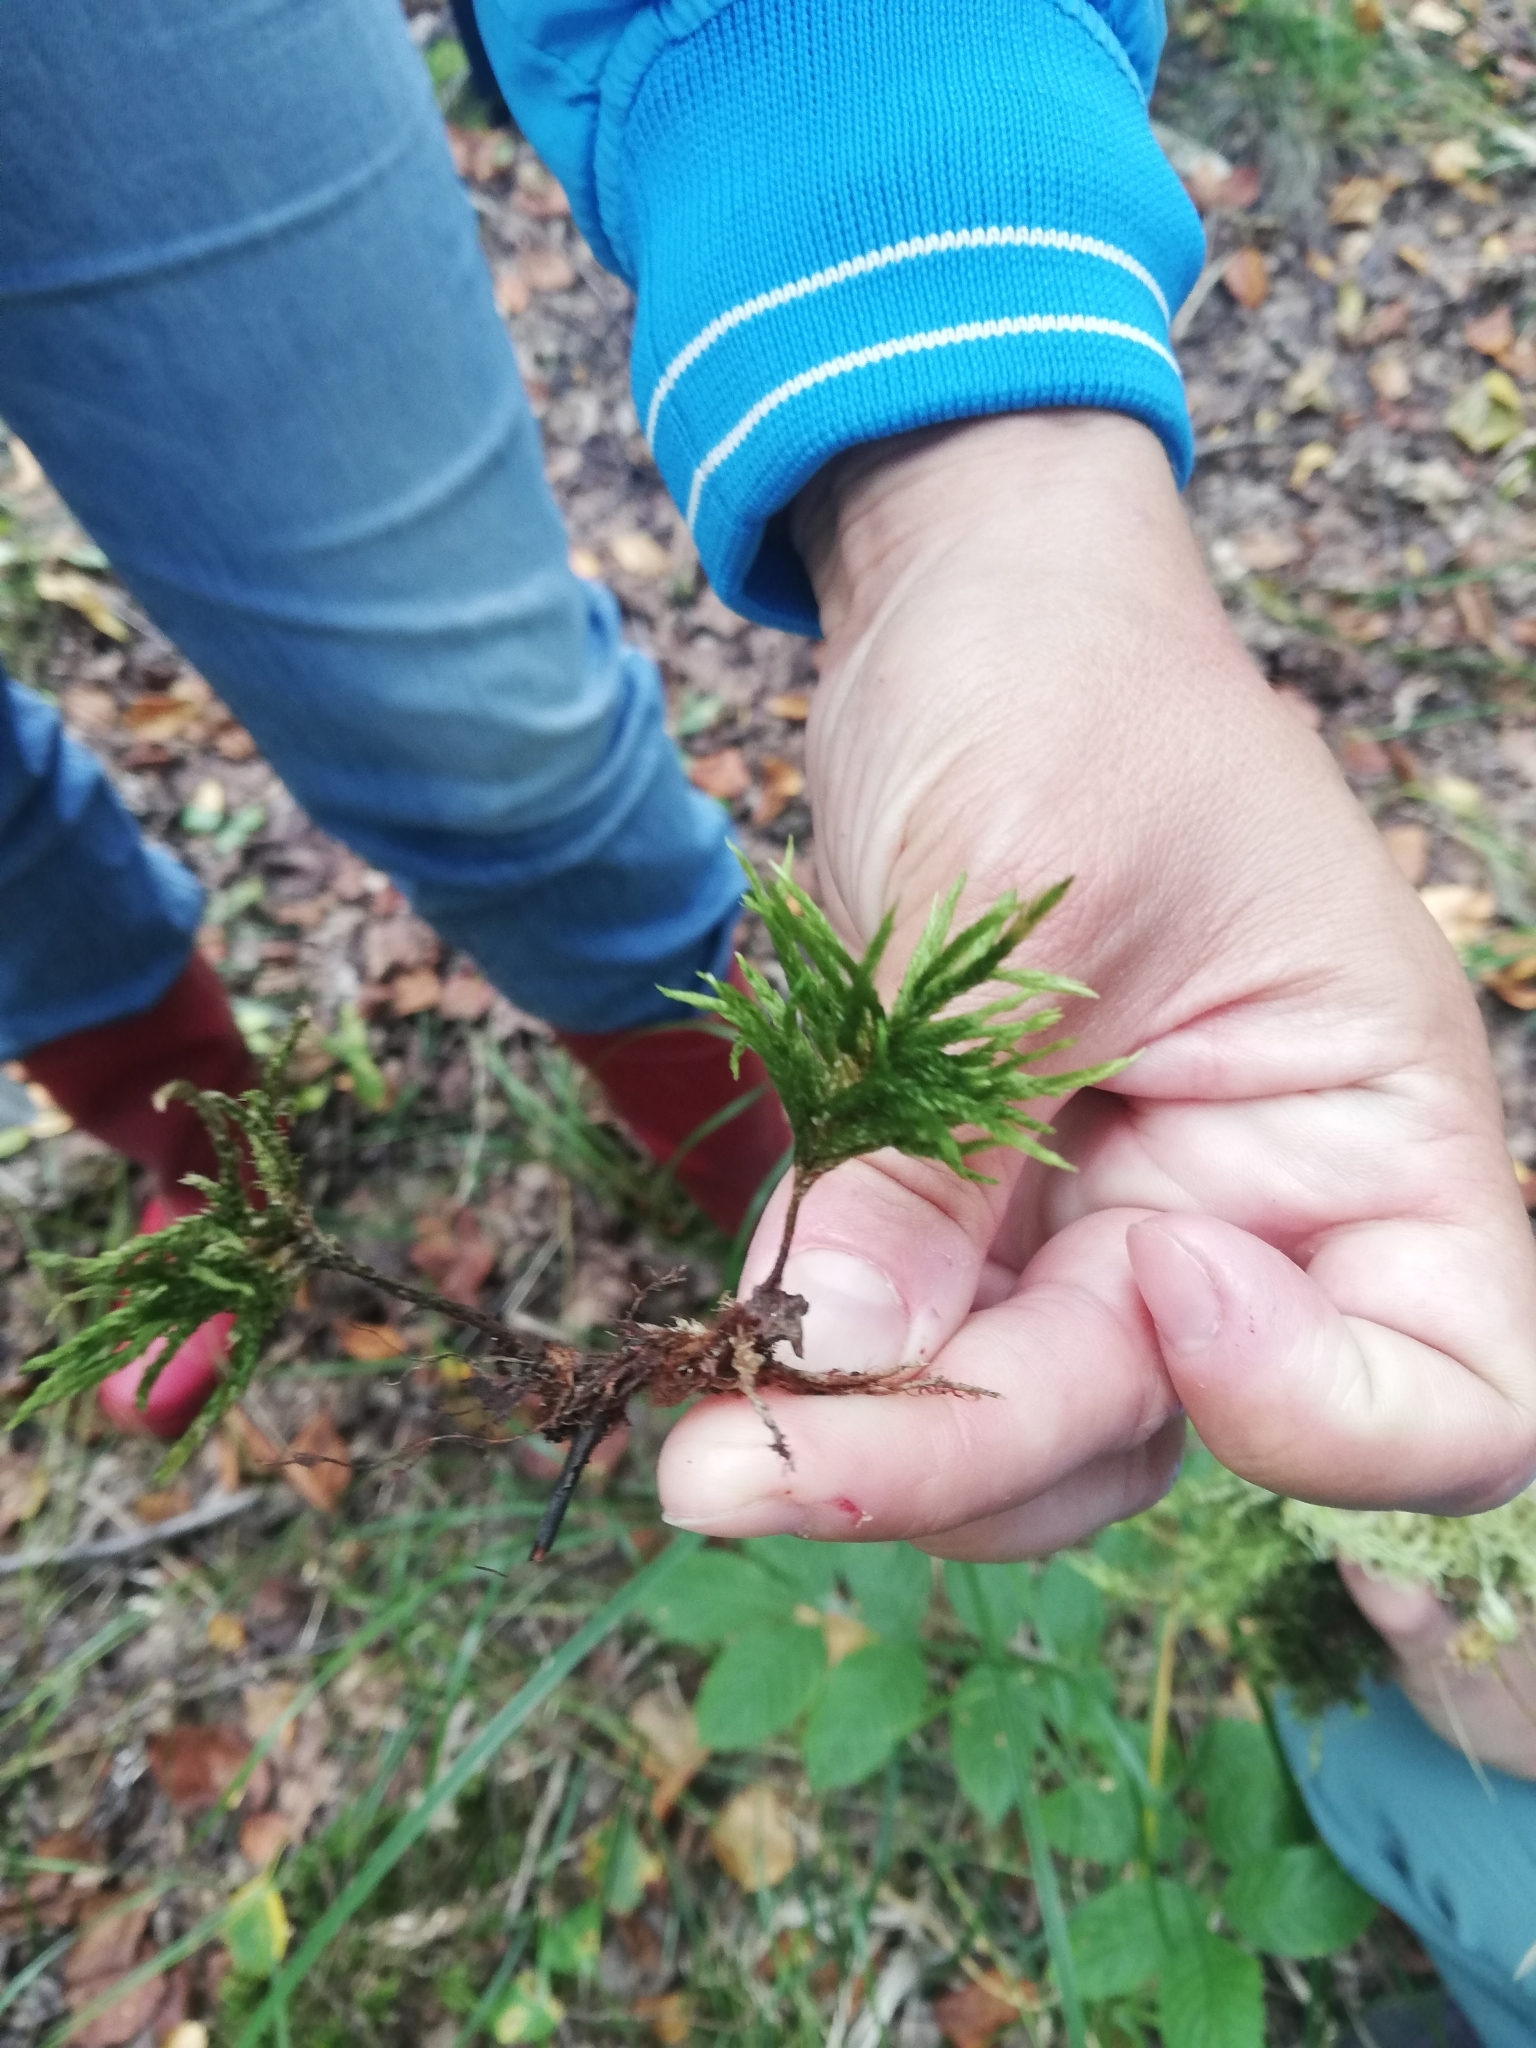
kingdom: Plantae
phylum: Bryophyta
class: Bryopsida
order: Hypnales
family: Climaciaceae
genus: Climacium
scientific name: Climacium dendroides
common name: Northern tree moss
